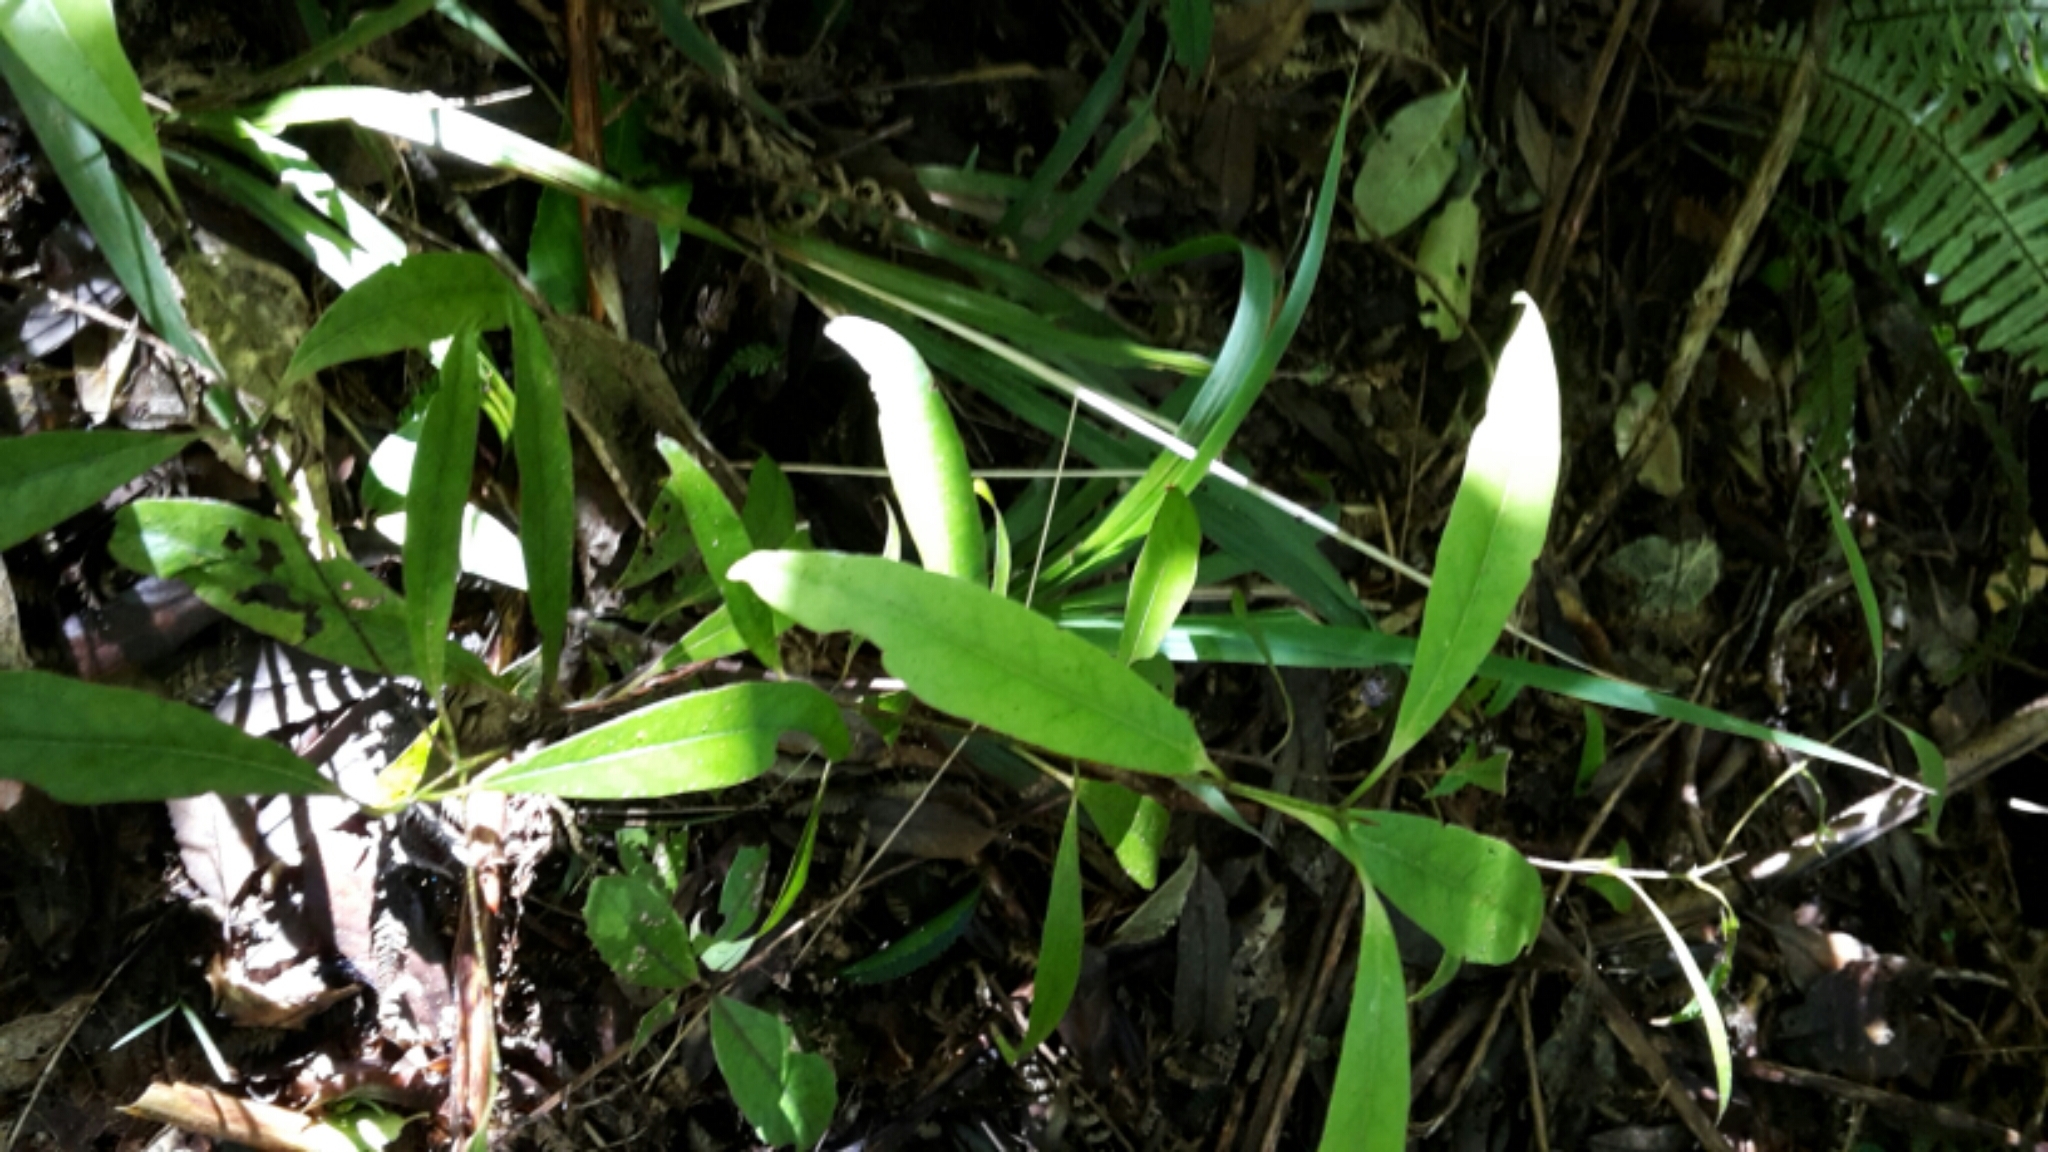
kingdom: Plantae
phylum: Tracheophyta
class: Magnoliopsida
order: Laurales
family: Lauraceae
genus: Beilschmiedia
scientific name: Beilschmiedia tawa
